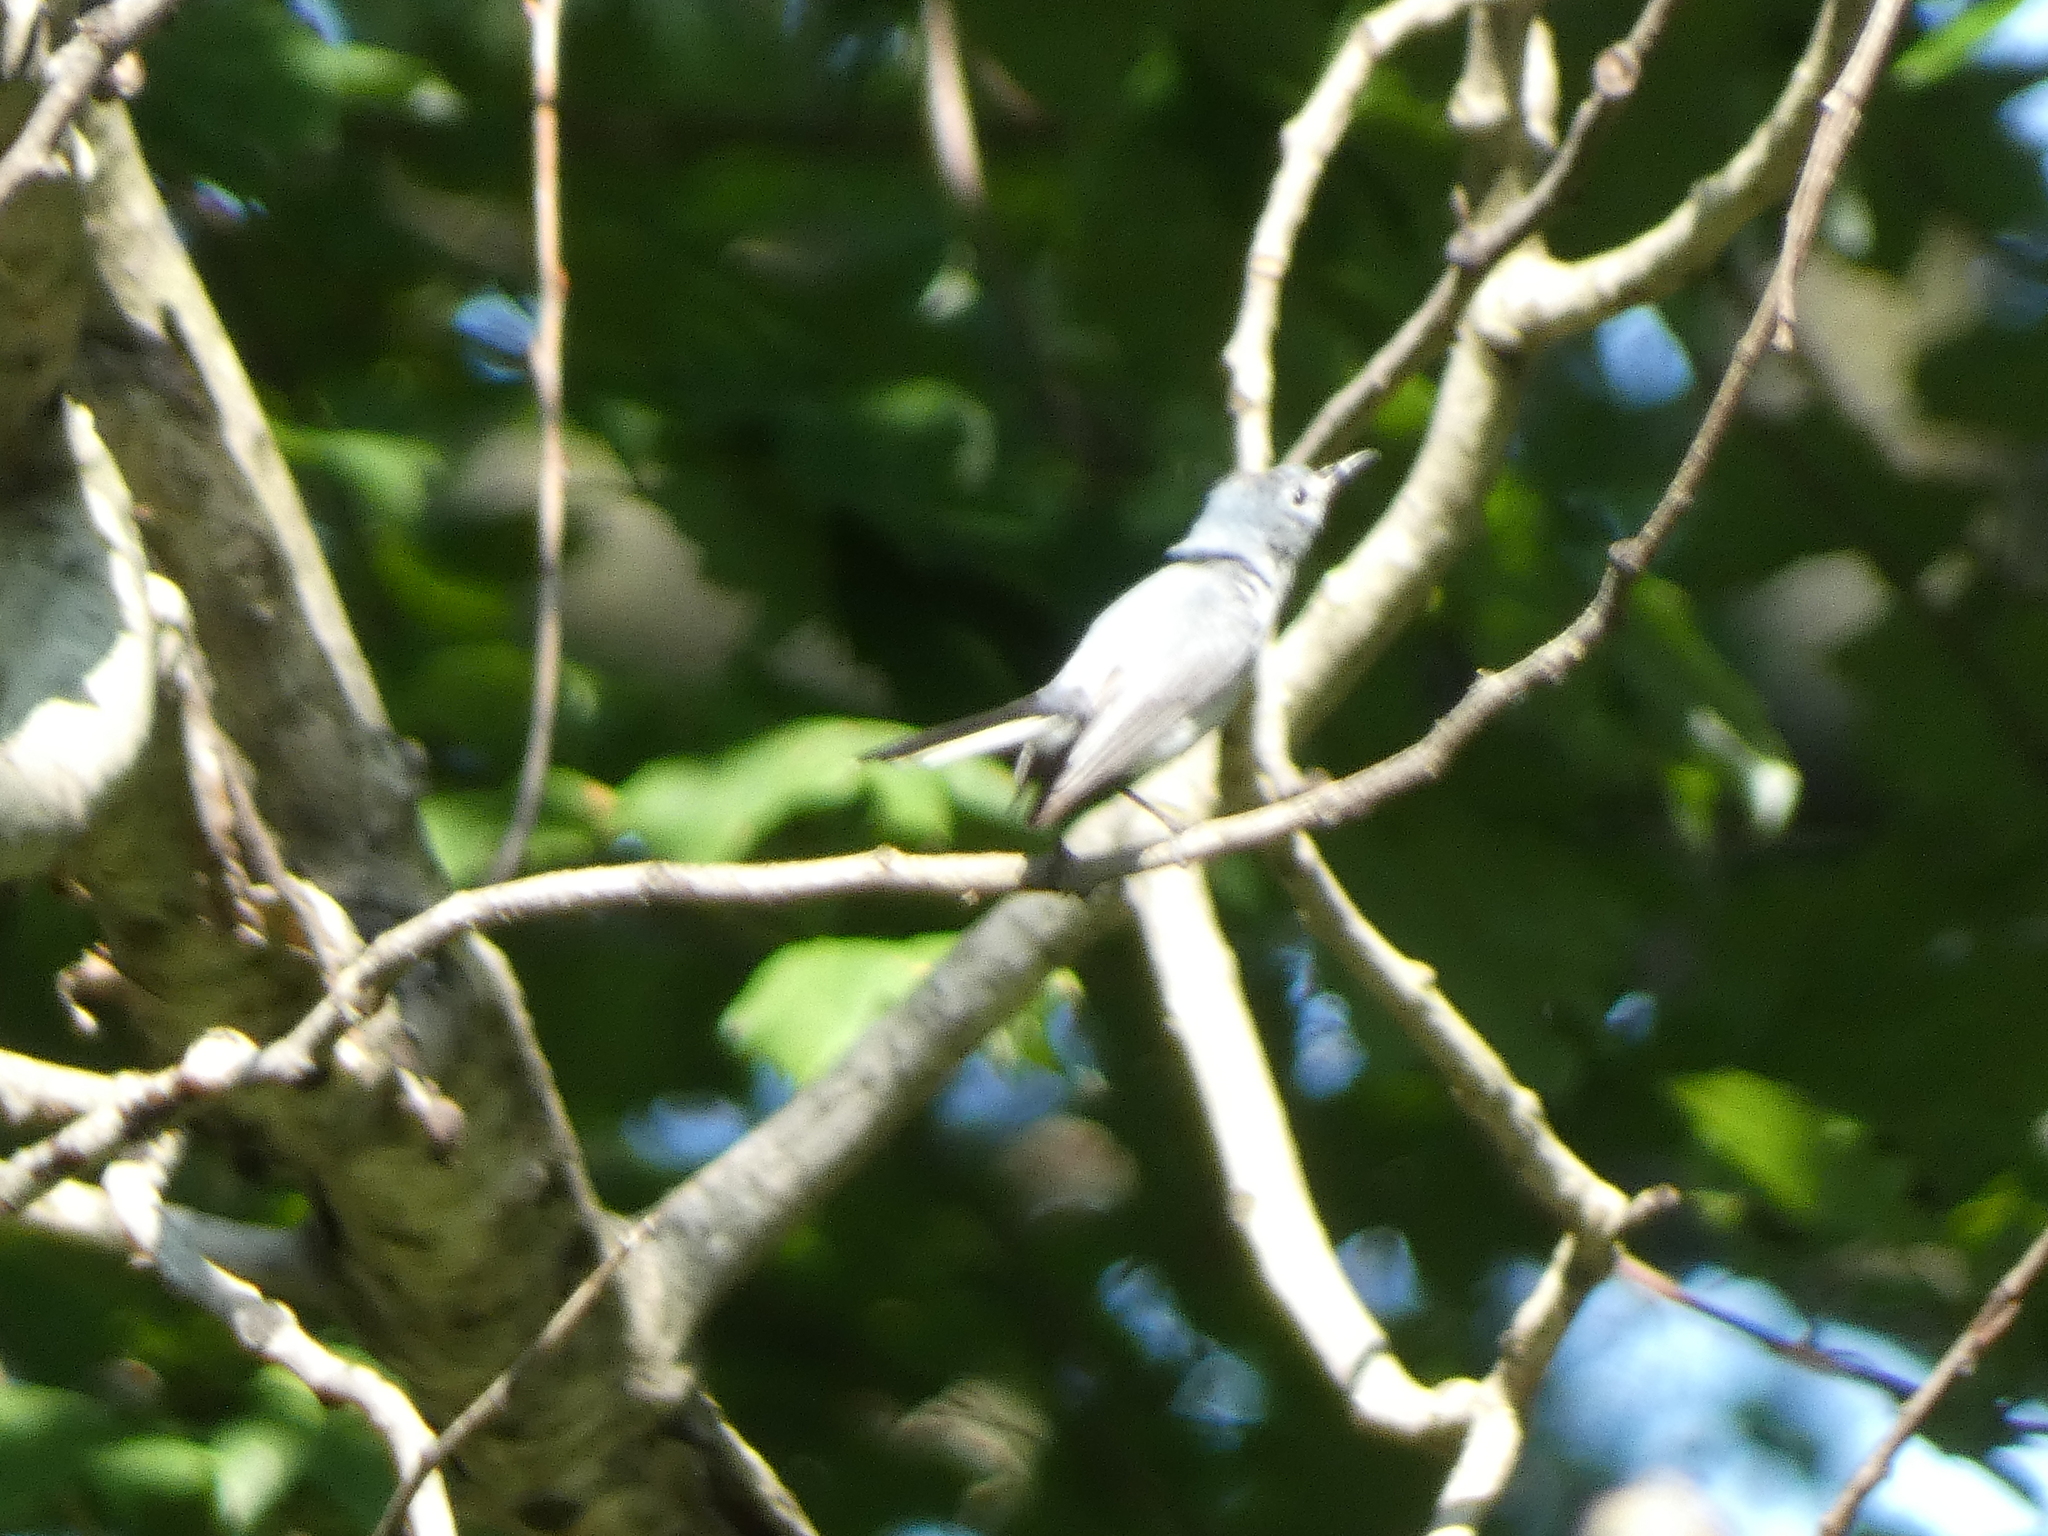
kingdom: Animalia
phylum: Chordata
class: Aves
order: Passeriformes
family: Polioptilidae
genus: Polioptila
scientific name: Polioptila caerulea
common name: Blue-gray gnatcatcher
